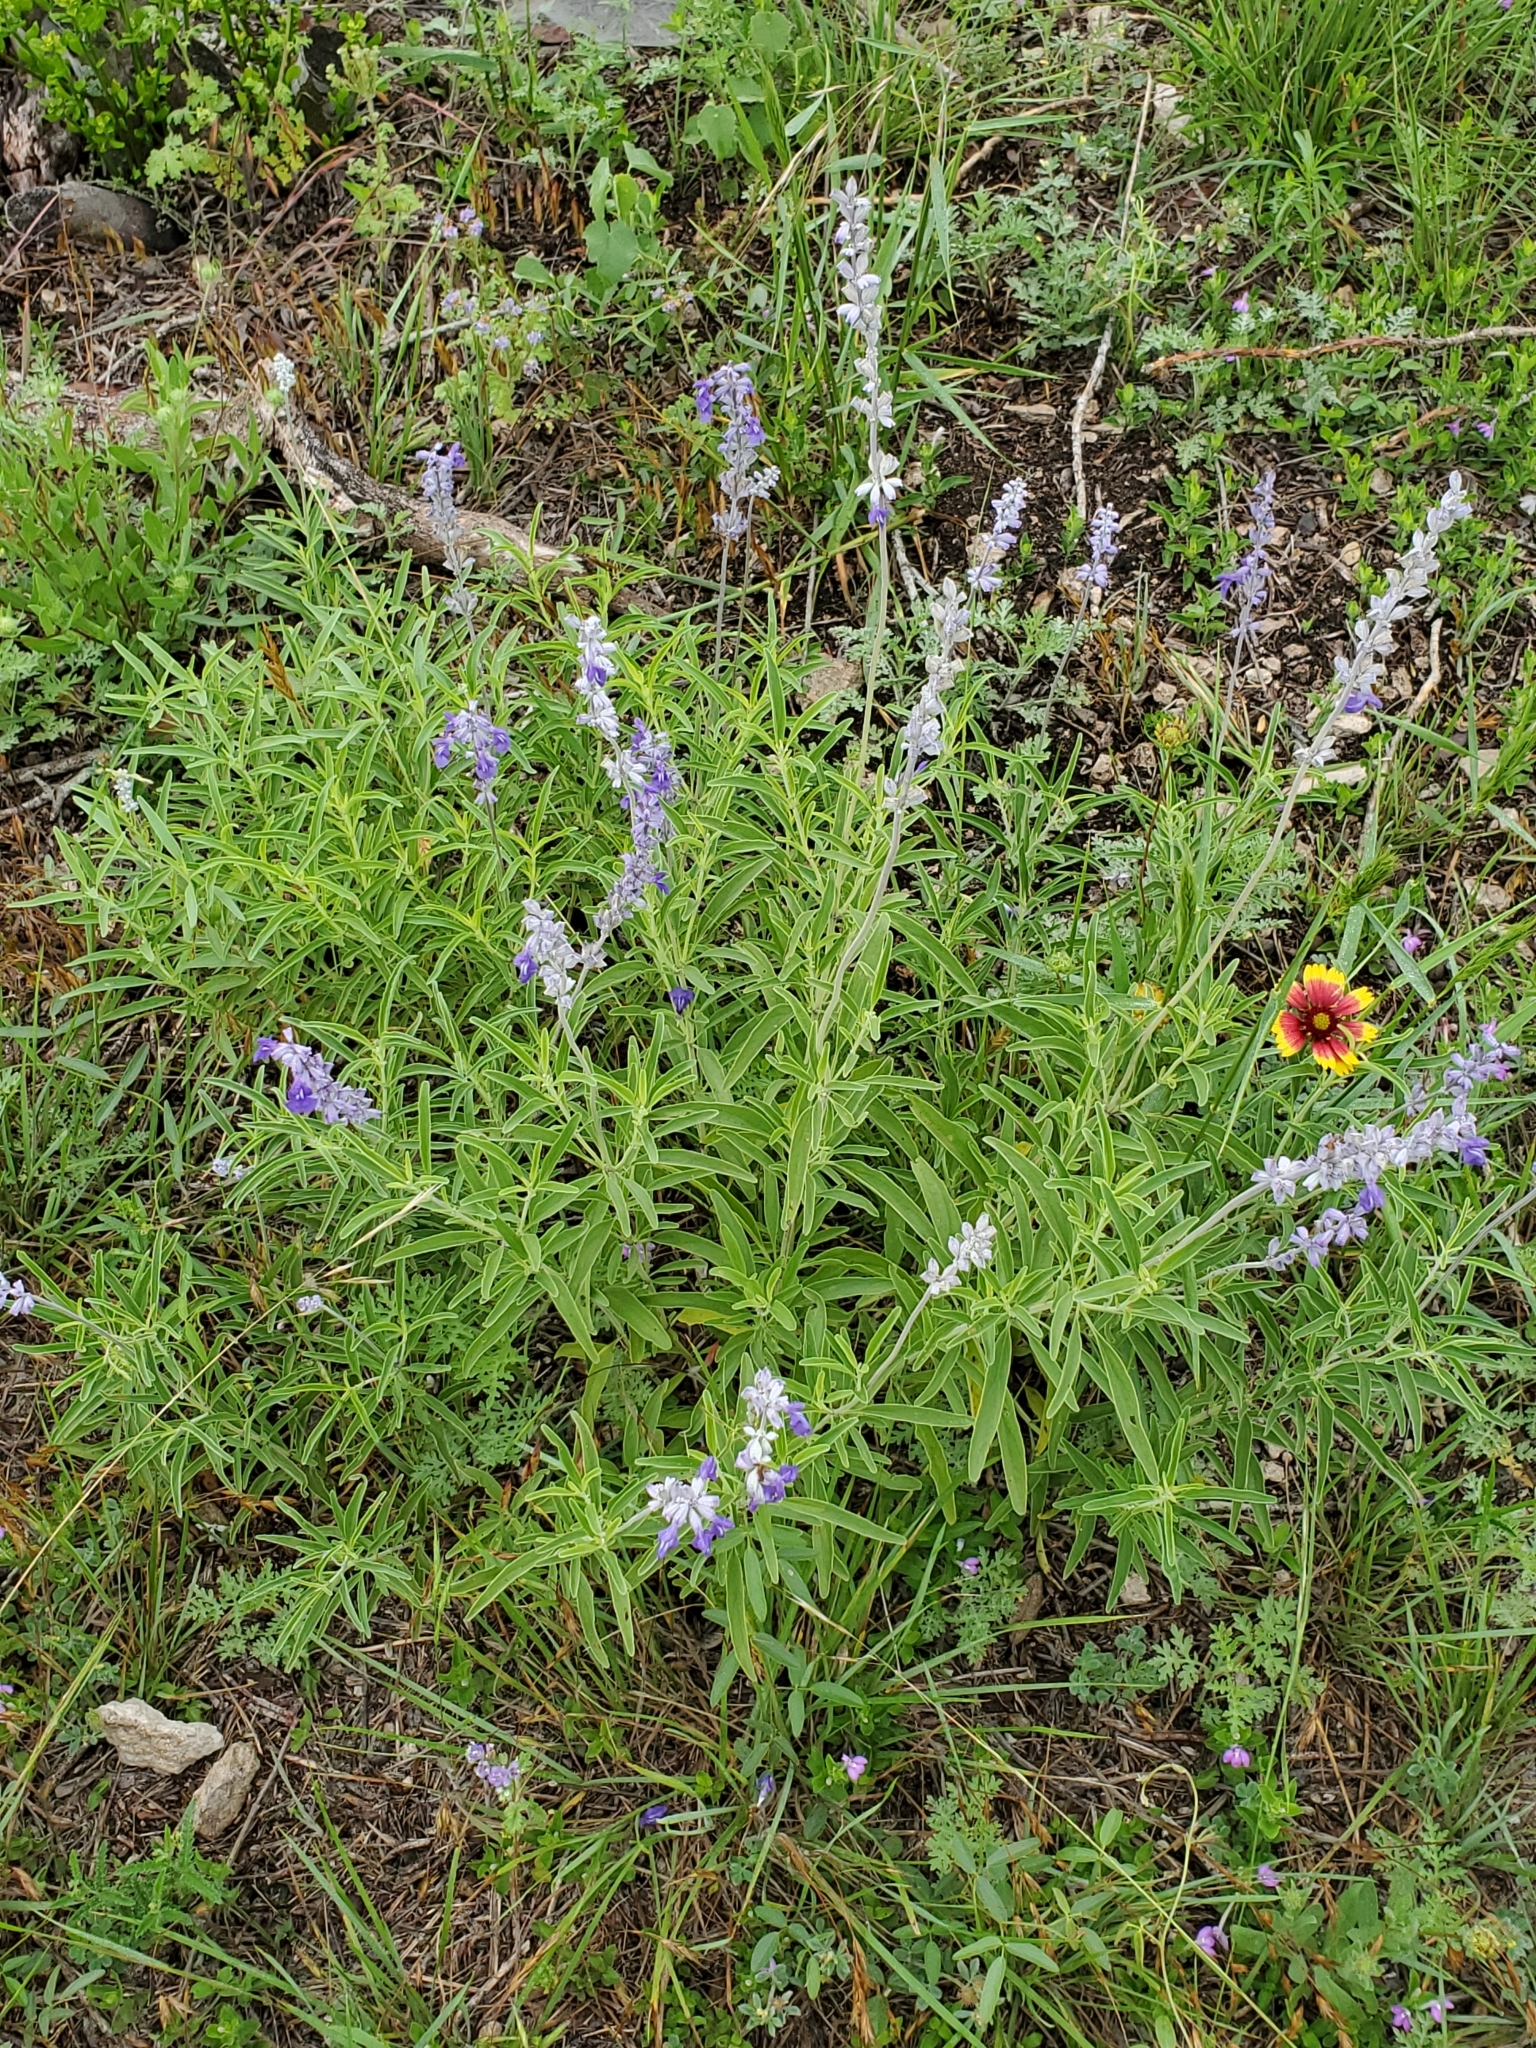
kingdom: Plantae
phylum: Tracheophyta
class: Magnoliopsida
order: Lamiales
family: Lamiaceae
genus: Salvia
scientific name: Salvia farinacea
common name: Mealy sage
